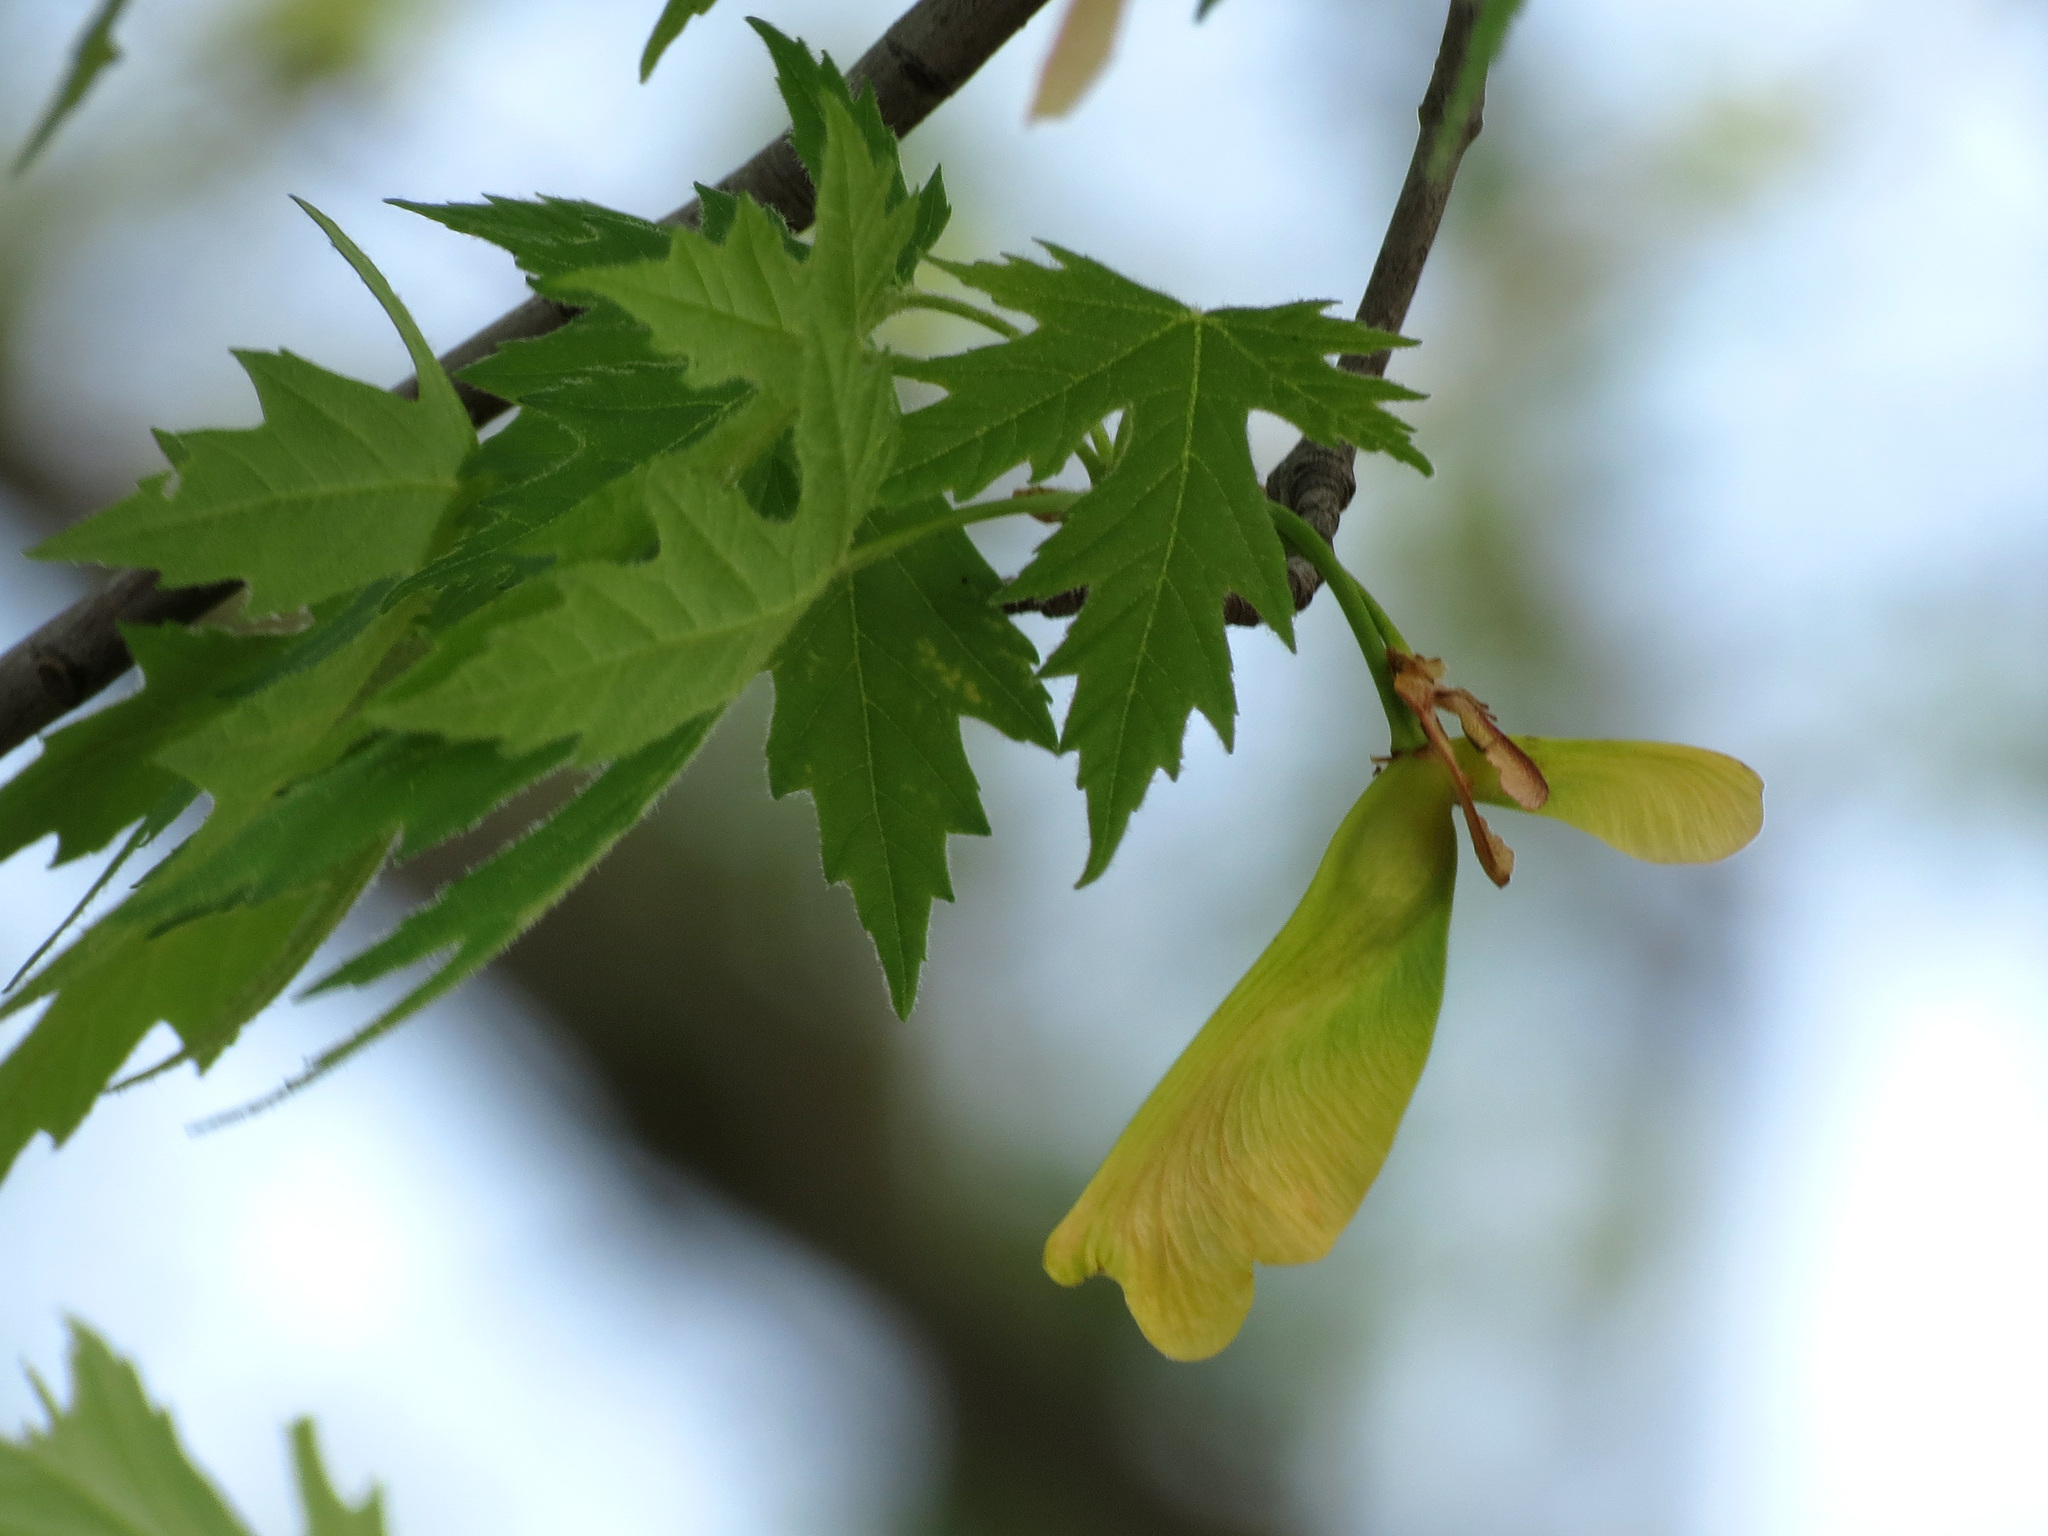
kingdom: Plantae
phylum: Tracheophyta
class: Magnoliopsida
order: Sapindales
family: Sapindaceae
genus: Acer
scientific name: Acer saccharinum
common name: Silver maple
